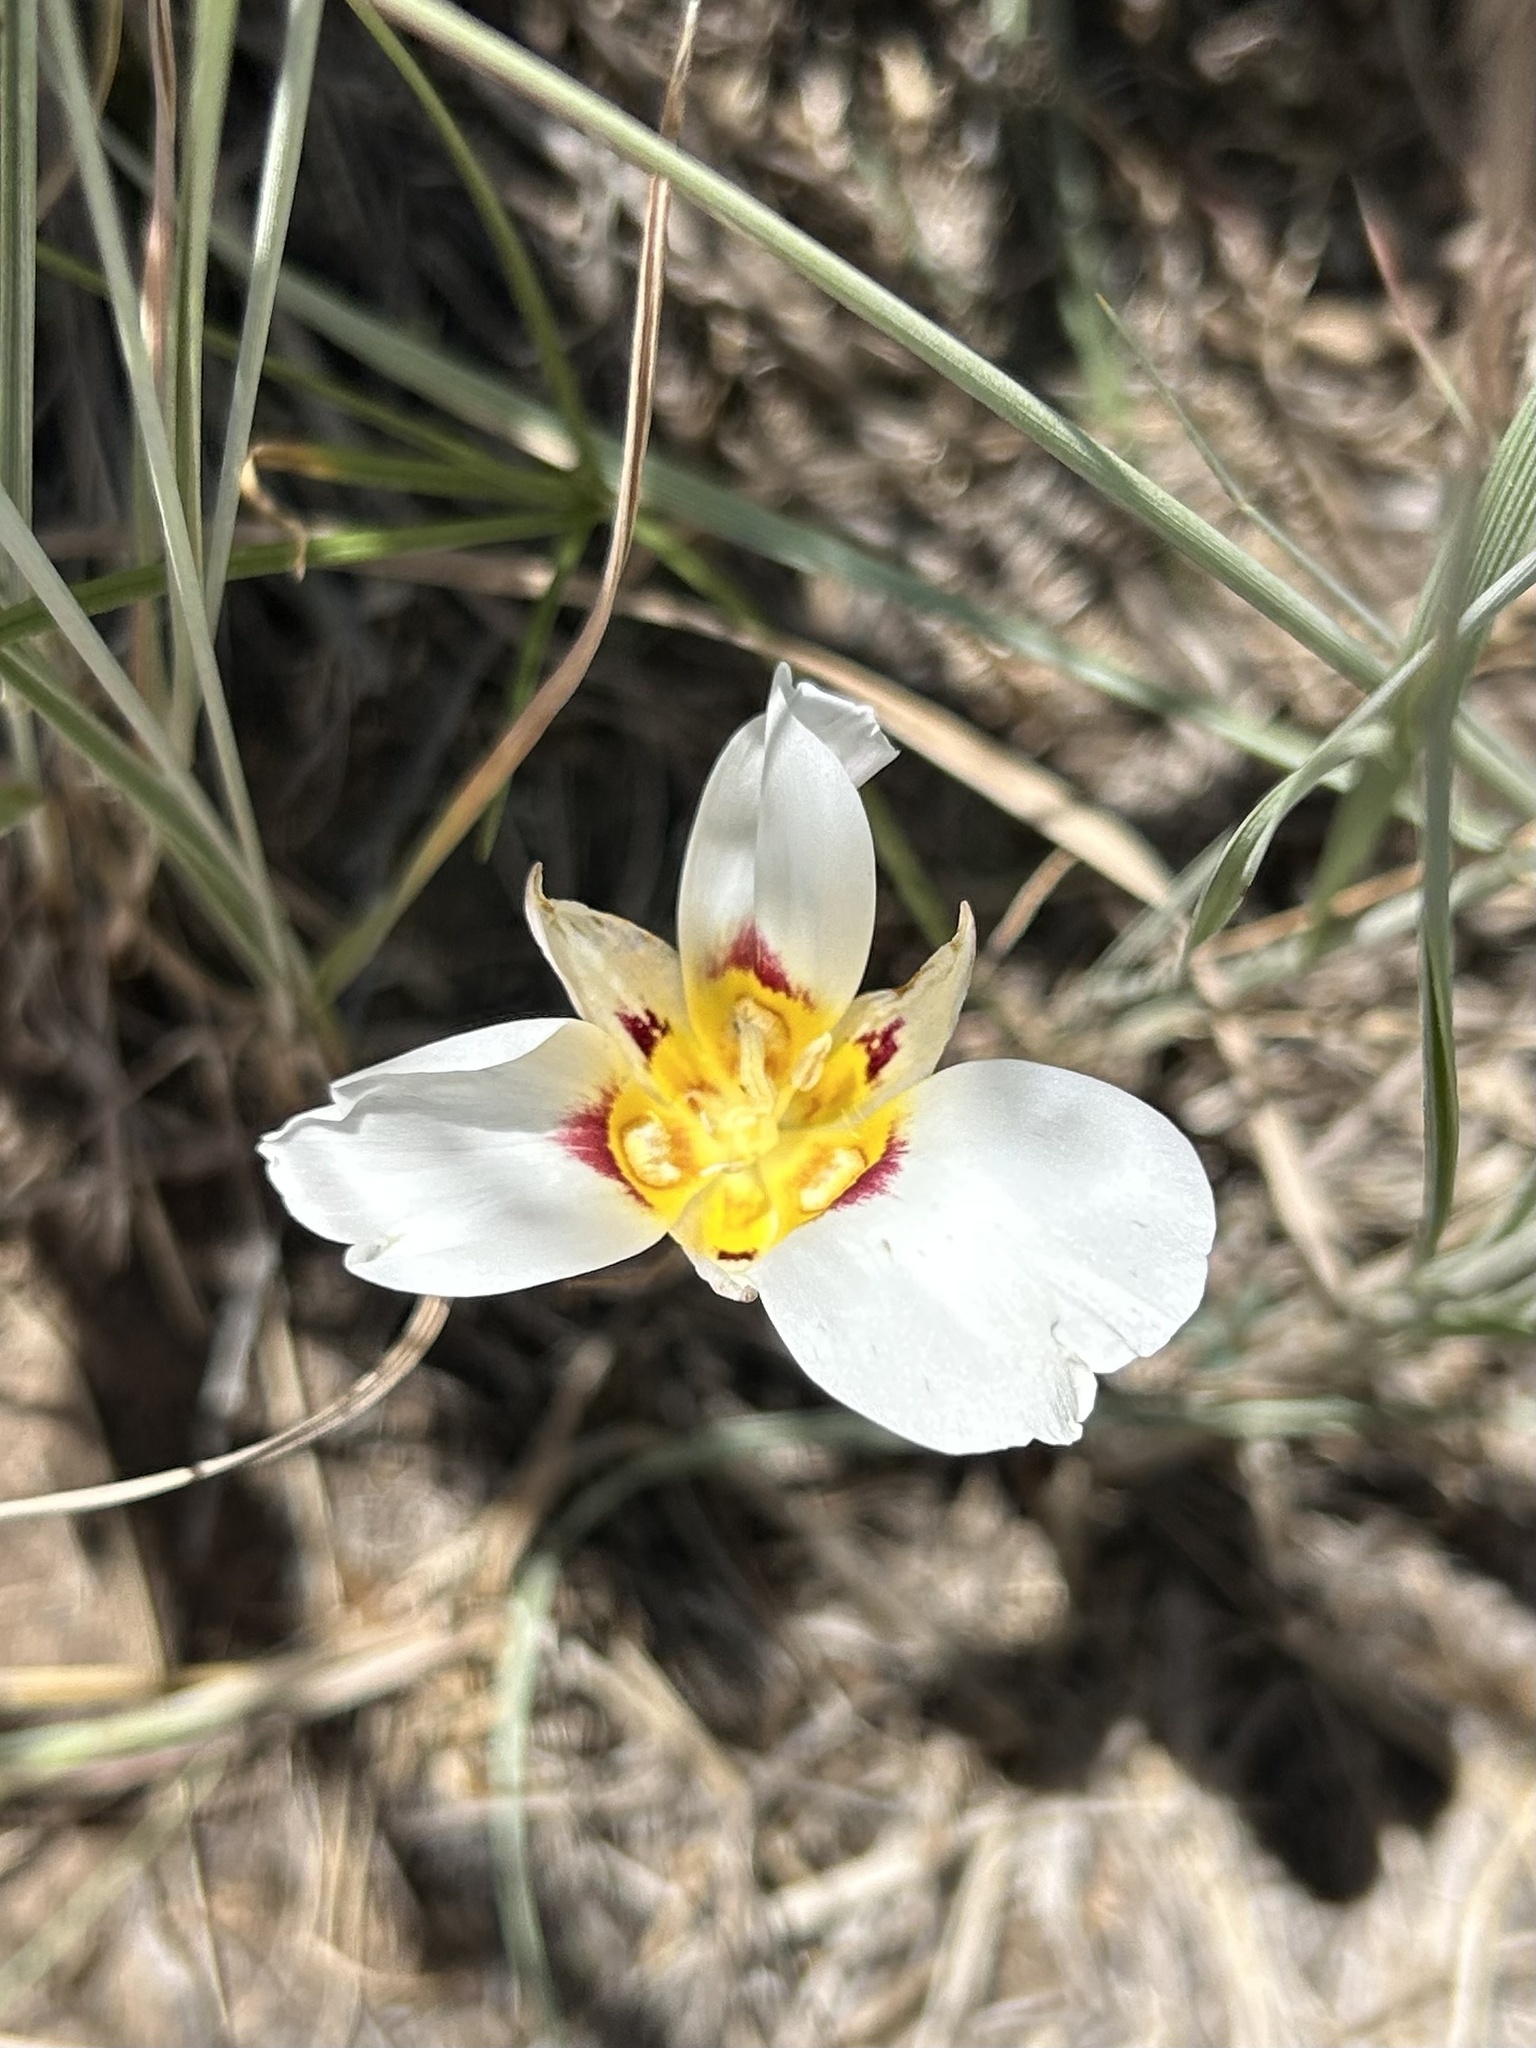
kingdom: Plantae
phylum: Tracheophyta
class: Liliopsida
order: Liliales
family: Liliaceae
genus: Calochortus
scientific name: Calochortus nuttallii
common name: Sego-lily
